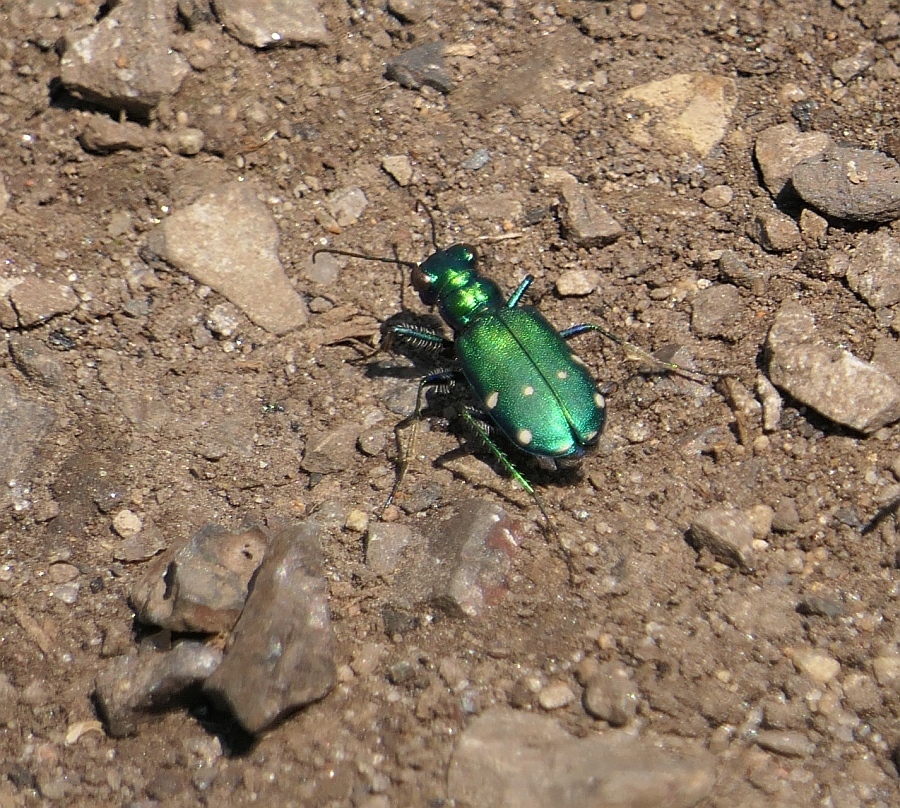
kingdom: Animalia
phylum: Arthropoda
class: Insecta
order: Coleoptera
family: Carabidae
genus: Cicindela
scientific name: Cicindela sexguttata
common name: Six-spotted tiger beetle
